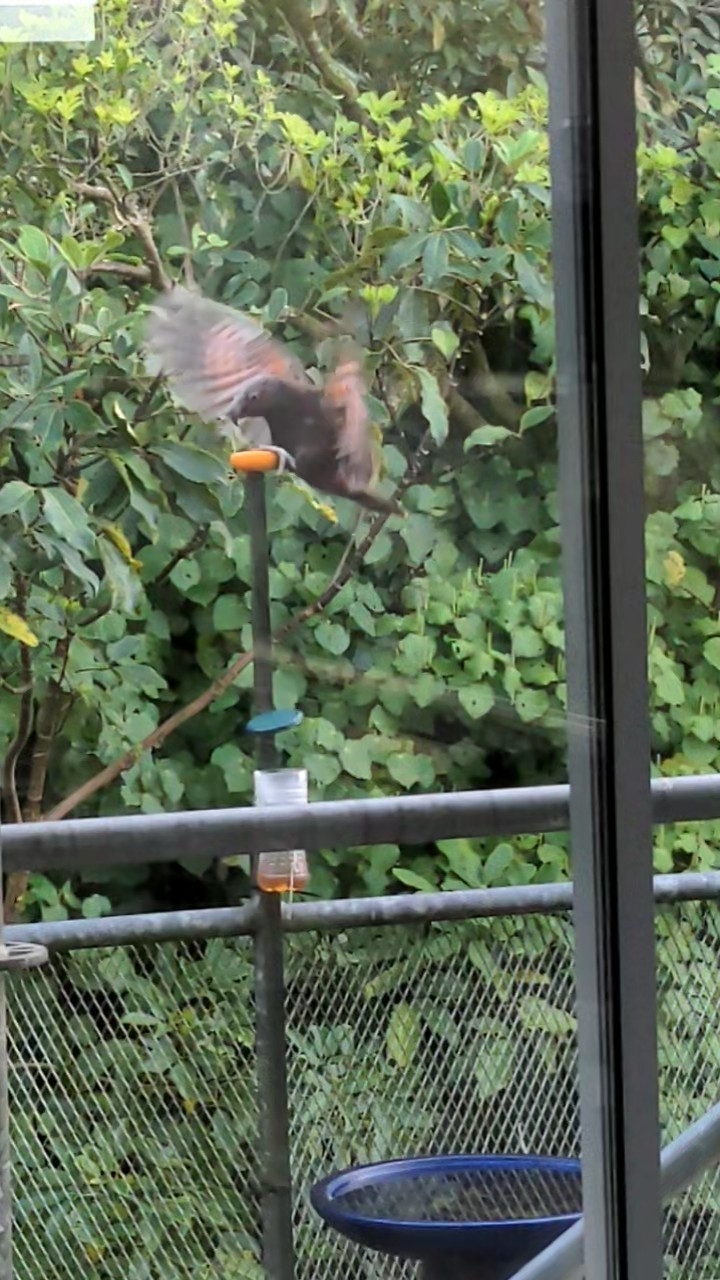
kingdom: Animalia
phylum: Chordata
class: Aves
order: Psittaciformes
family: Psittacidae
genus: Nestor
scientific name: Nestor meridionalis
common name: New zealand kaka
